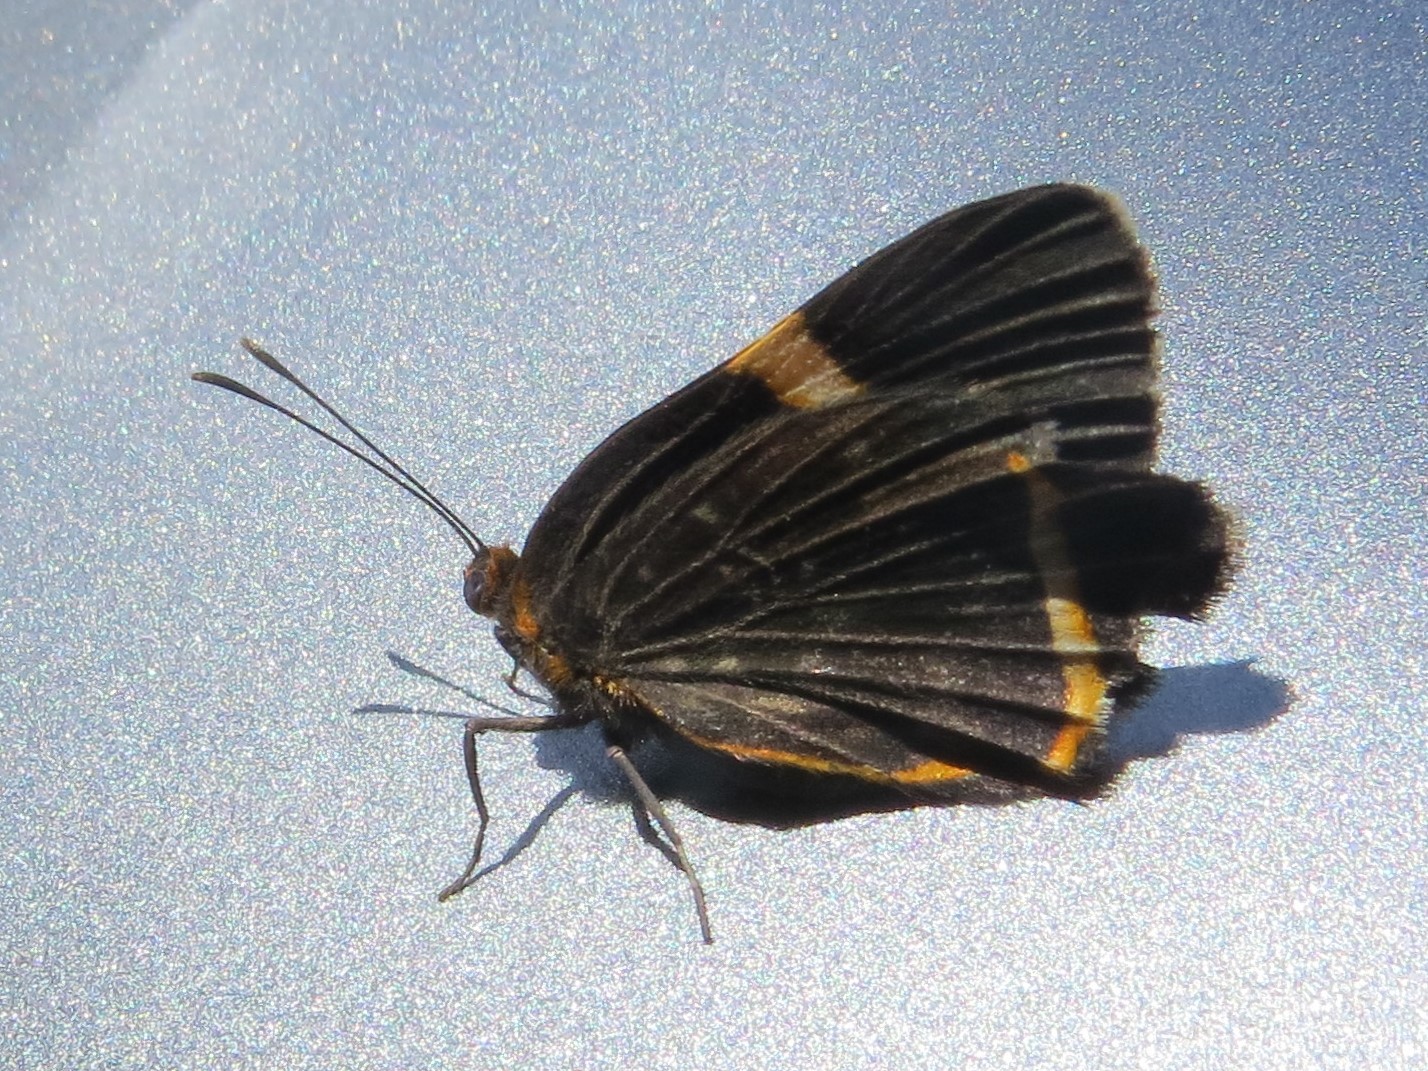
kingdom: Animalia
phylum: Arthropoda
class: Insecta
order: Lepidoptera
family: Riodinidae
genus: Riodina
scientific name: Riodina lysippoides
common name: Little dancer metalmark
